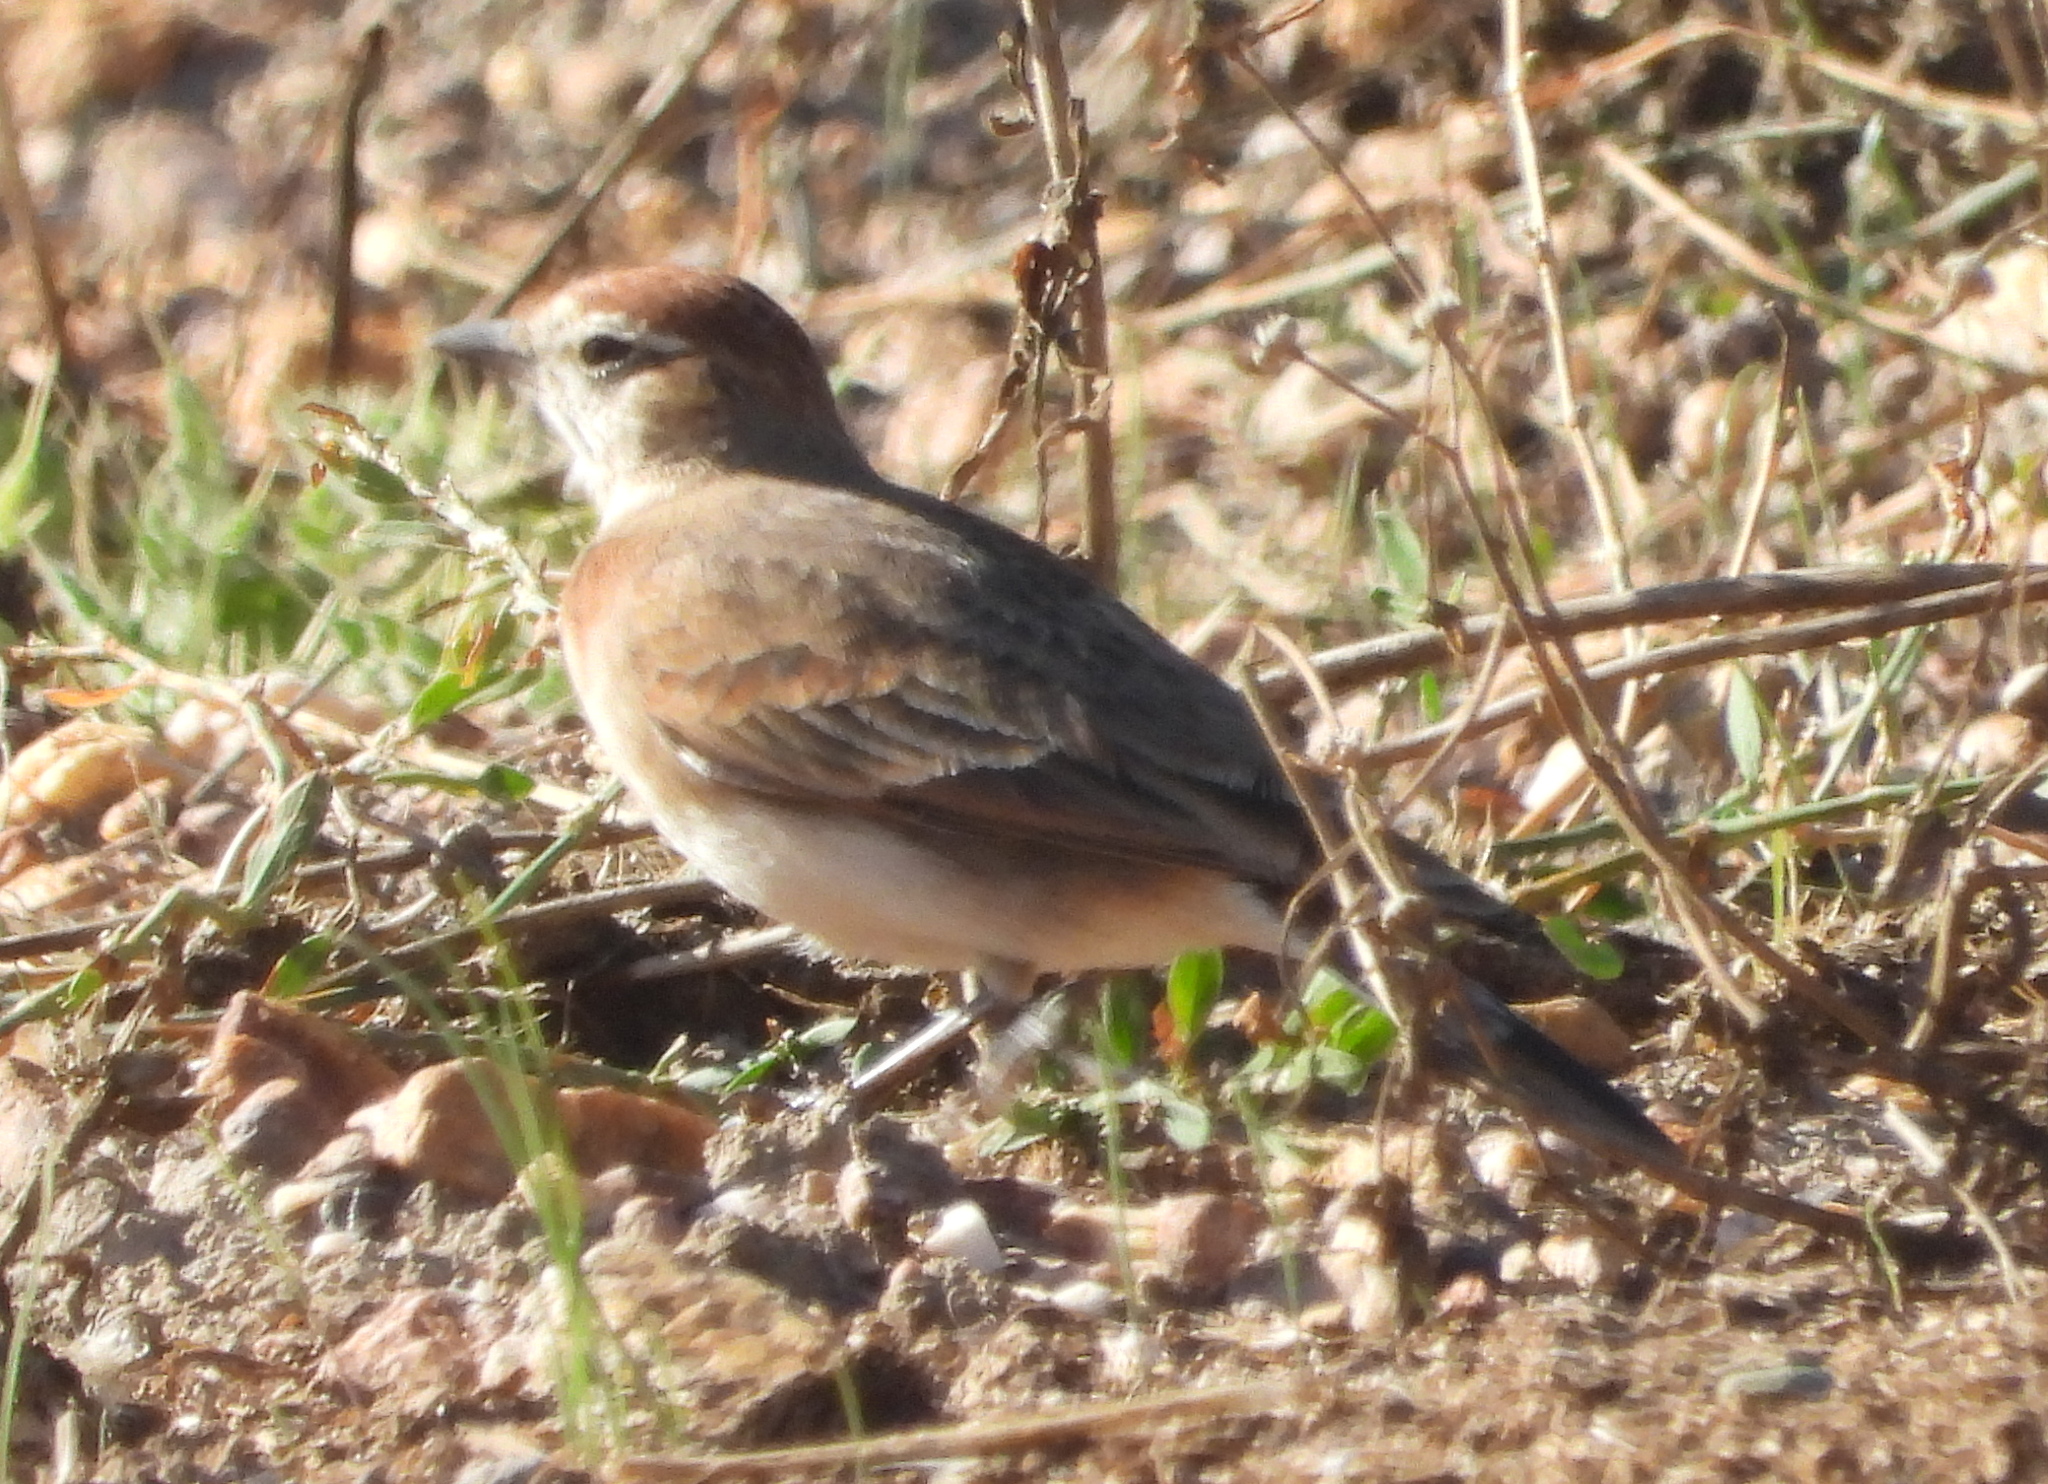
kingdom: Animalia
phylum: Chordata
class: Aves
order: Passeriformes
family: Alaudidae
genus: Calandrella
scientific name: Calandrella cinerea
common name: Red-capped lark
